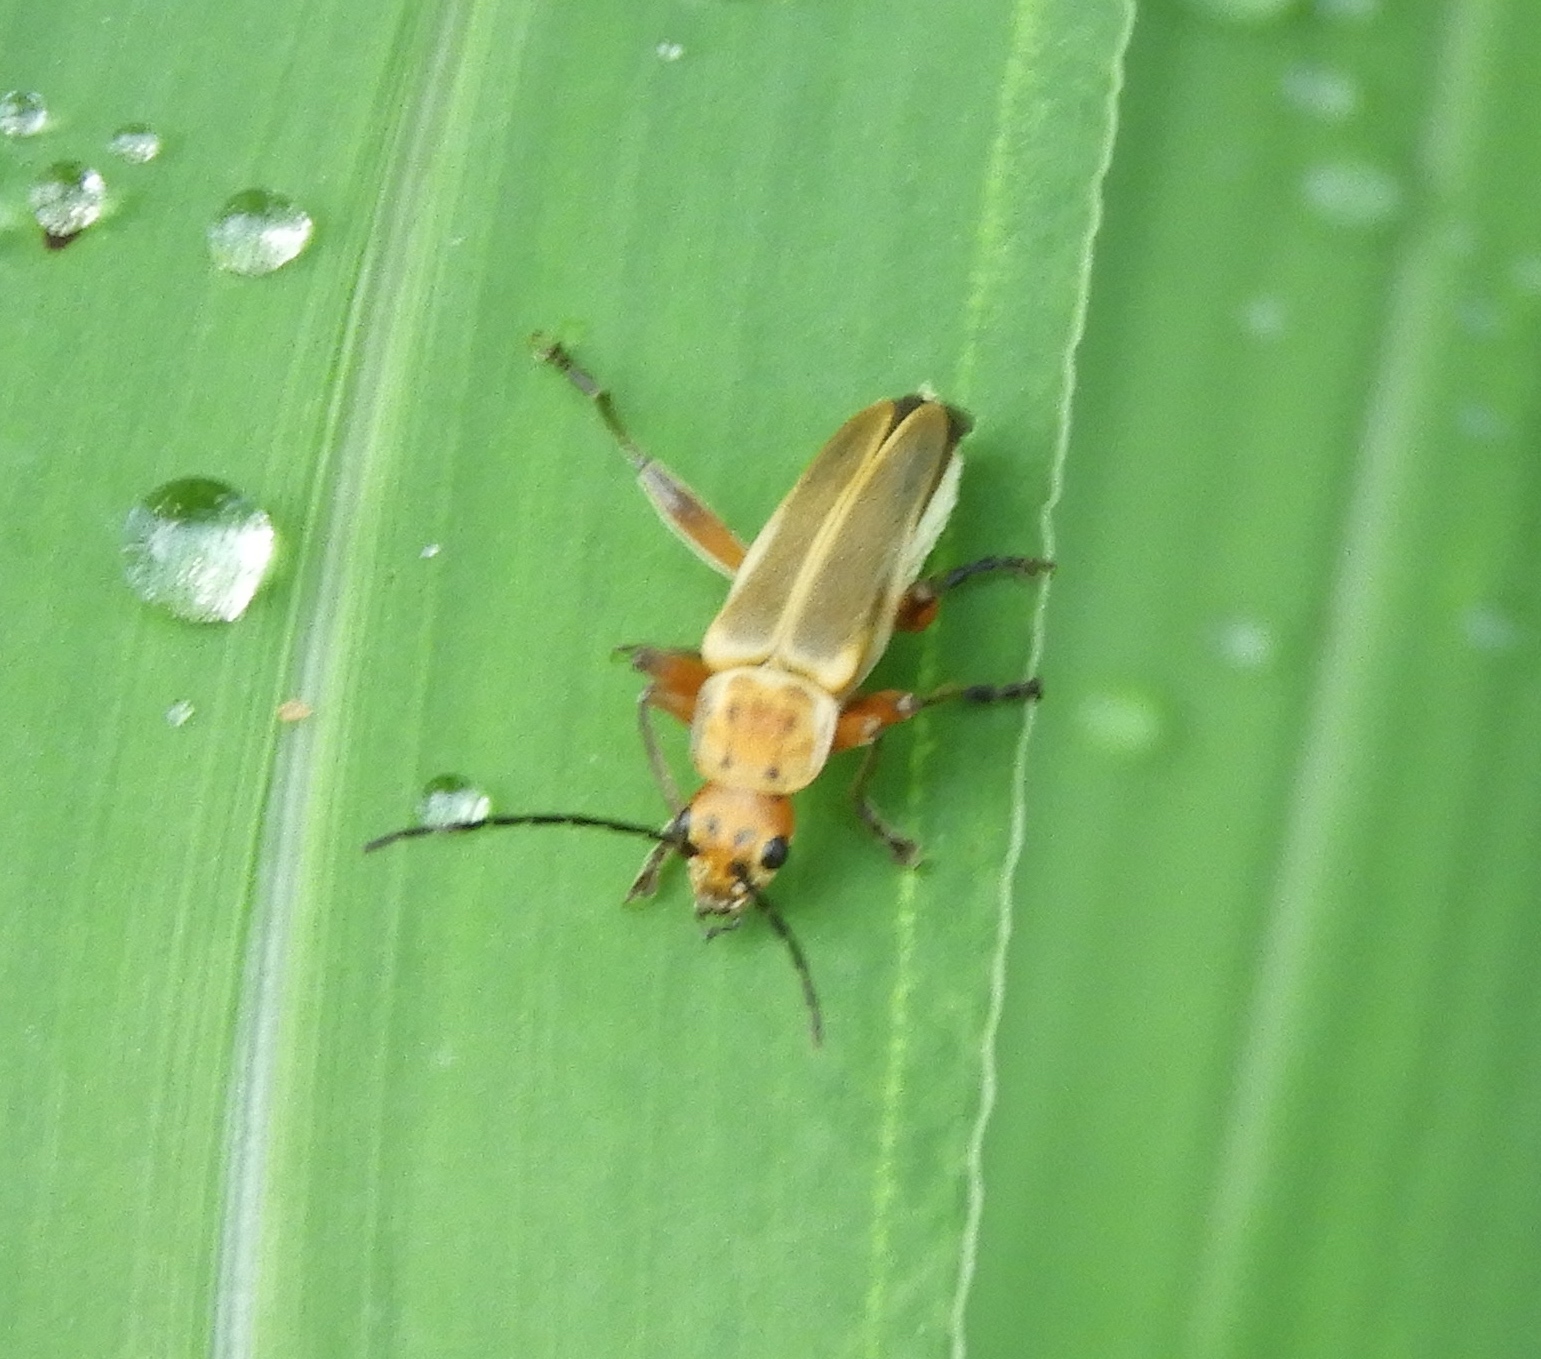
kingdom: Animalia
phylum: Arthropoda
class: Insecta
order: Coleoptera
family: Cantharidae
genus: Chauliognathus
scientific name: Chauliognathus
